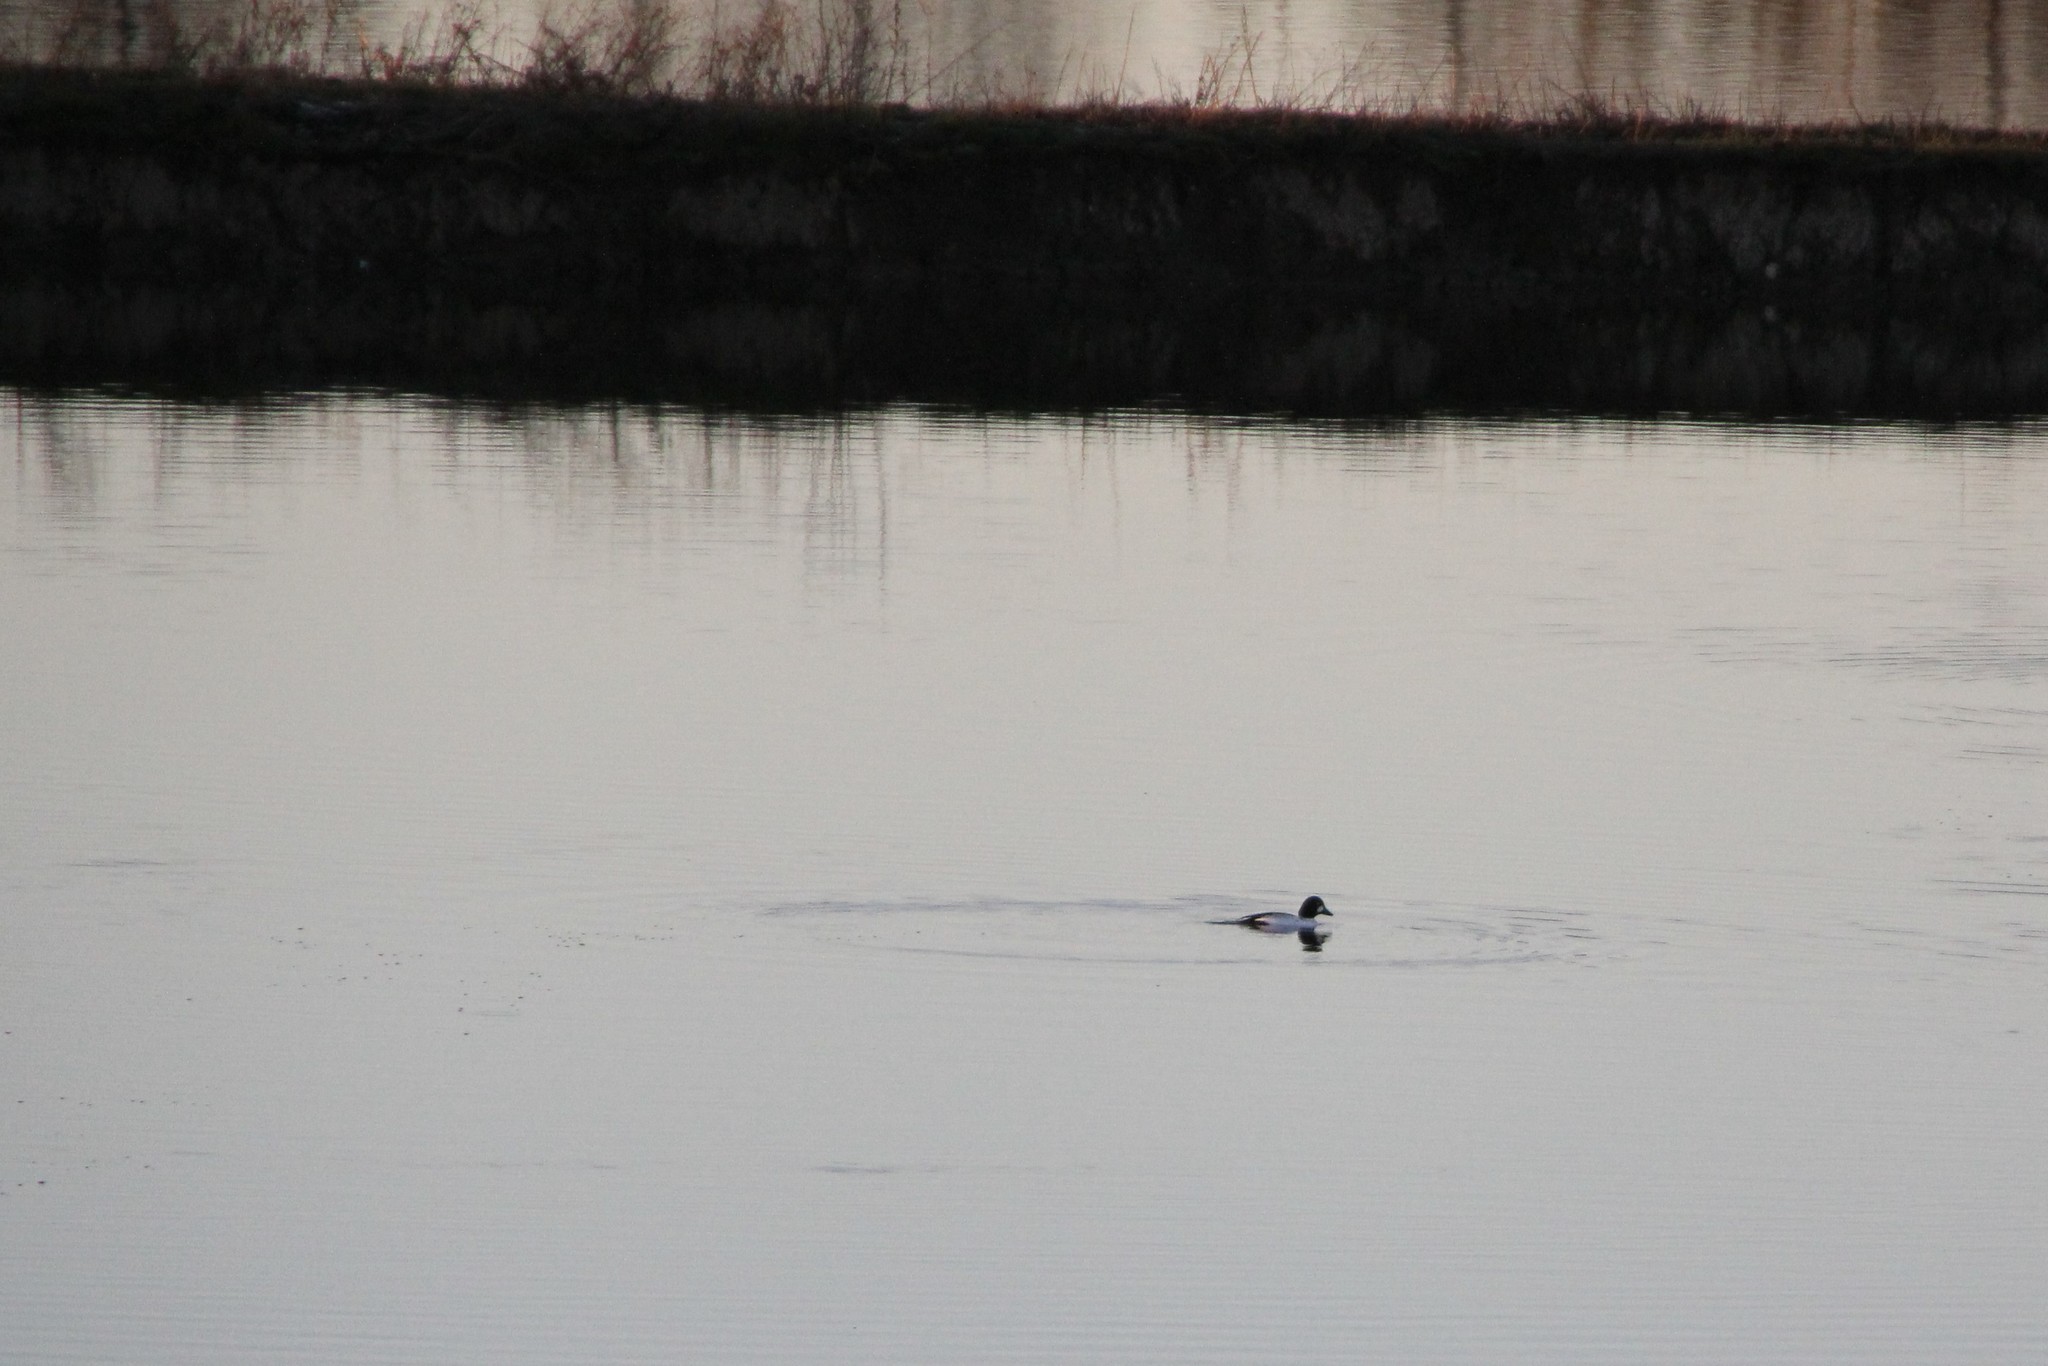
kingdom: Animalia
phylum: Chordata
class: Aves
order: Anseriformes
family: Anatidae
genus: Bucephala
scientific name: Bucephala clangula
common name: Common goldeneye
